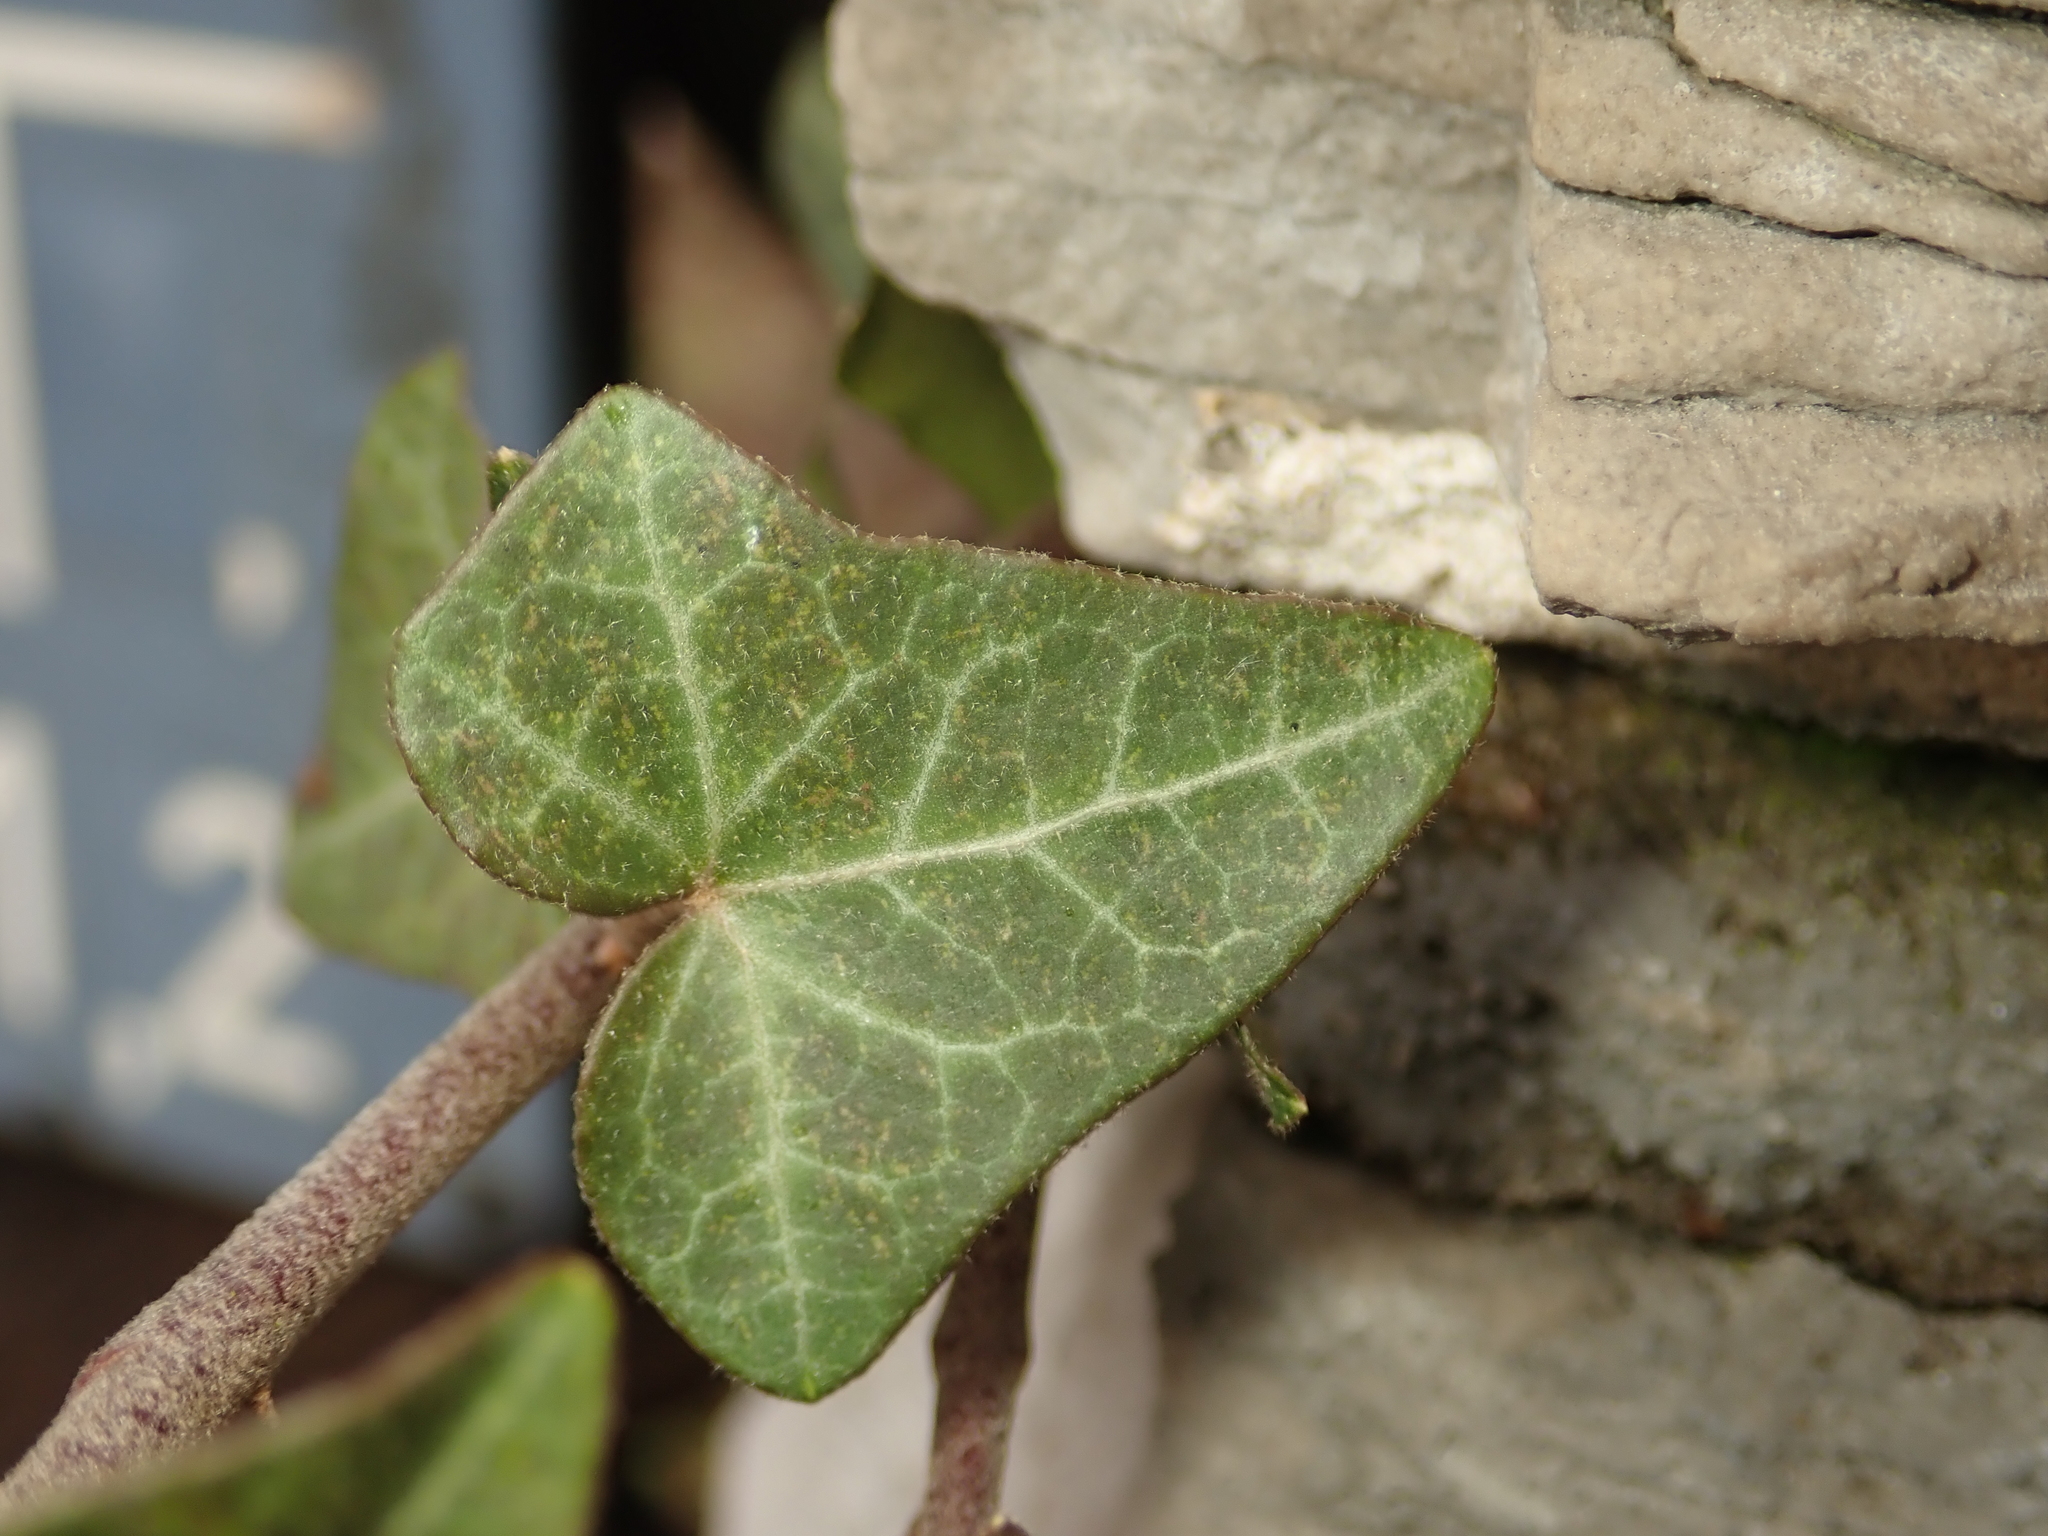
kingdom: Plantae
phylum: Tracheophyta
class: Magnoliopsida
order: Apiales
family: Araliaceae
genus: Hedera
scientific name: Hedera helix
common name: Ivy
